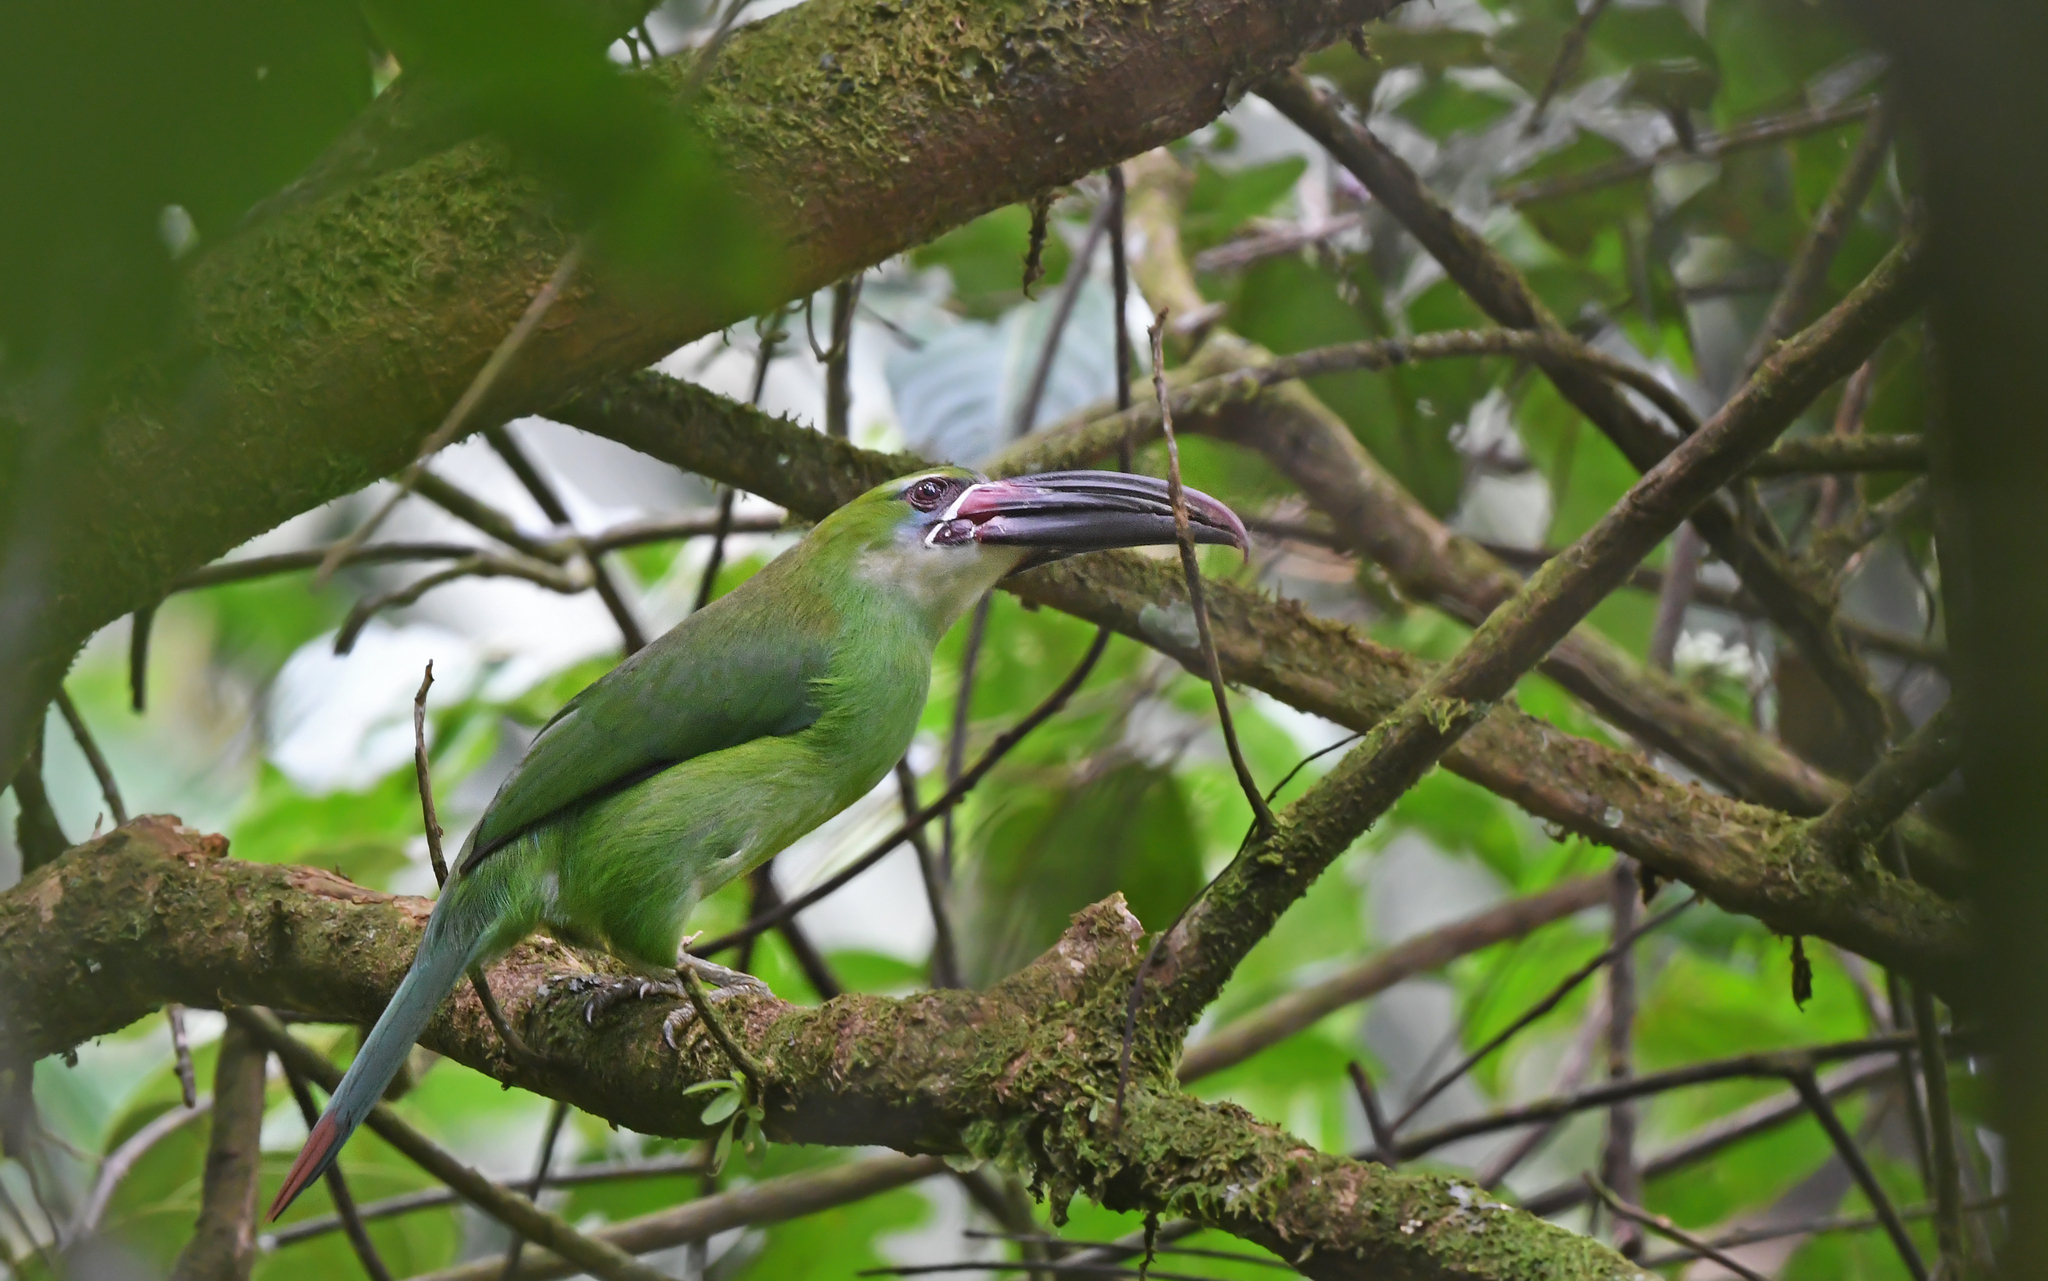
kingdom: Animalia
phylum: Chordata
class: Aves
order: Piciformes
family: Ramphastidae
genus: Aulacorhynchus
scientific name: Aulacorhynchus derbianus
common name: Chestnut-tipped toucanet
